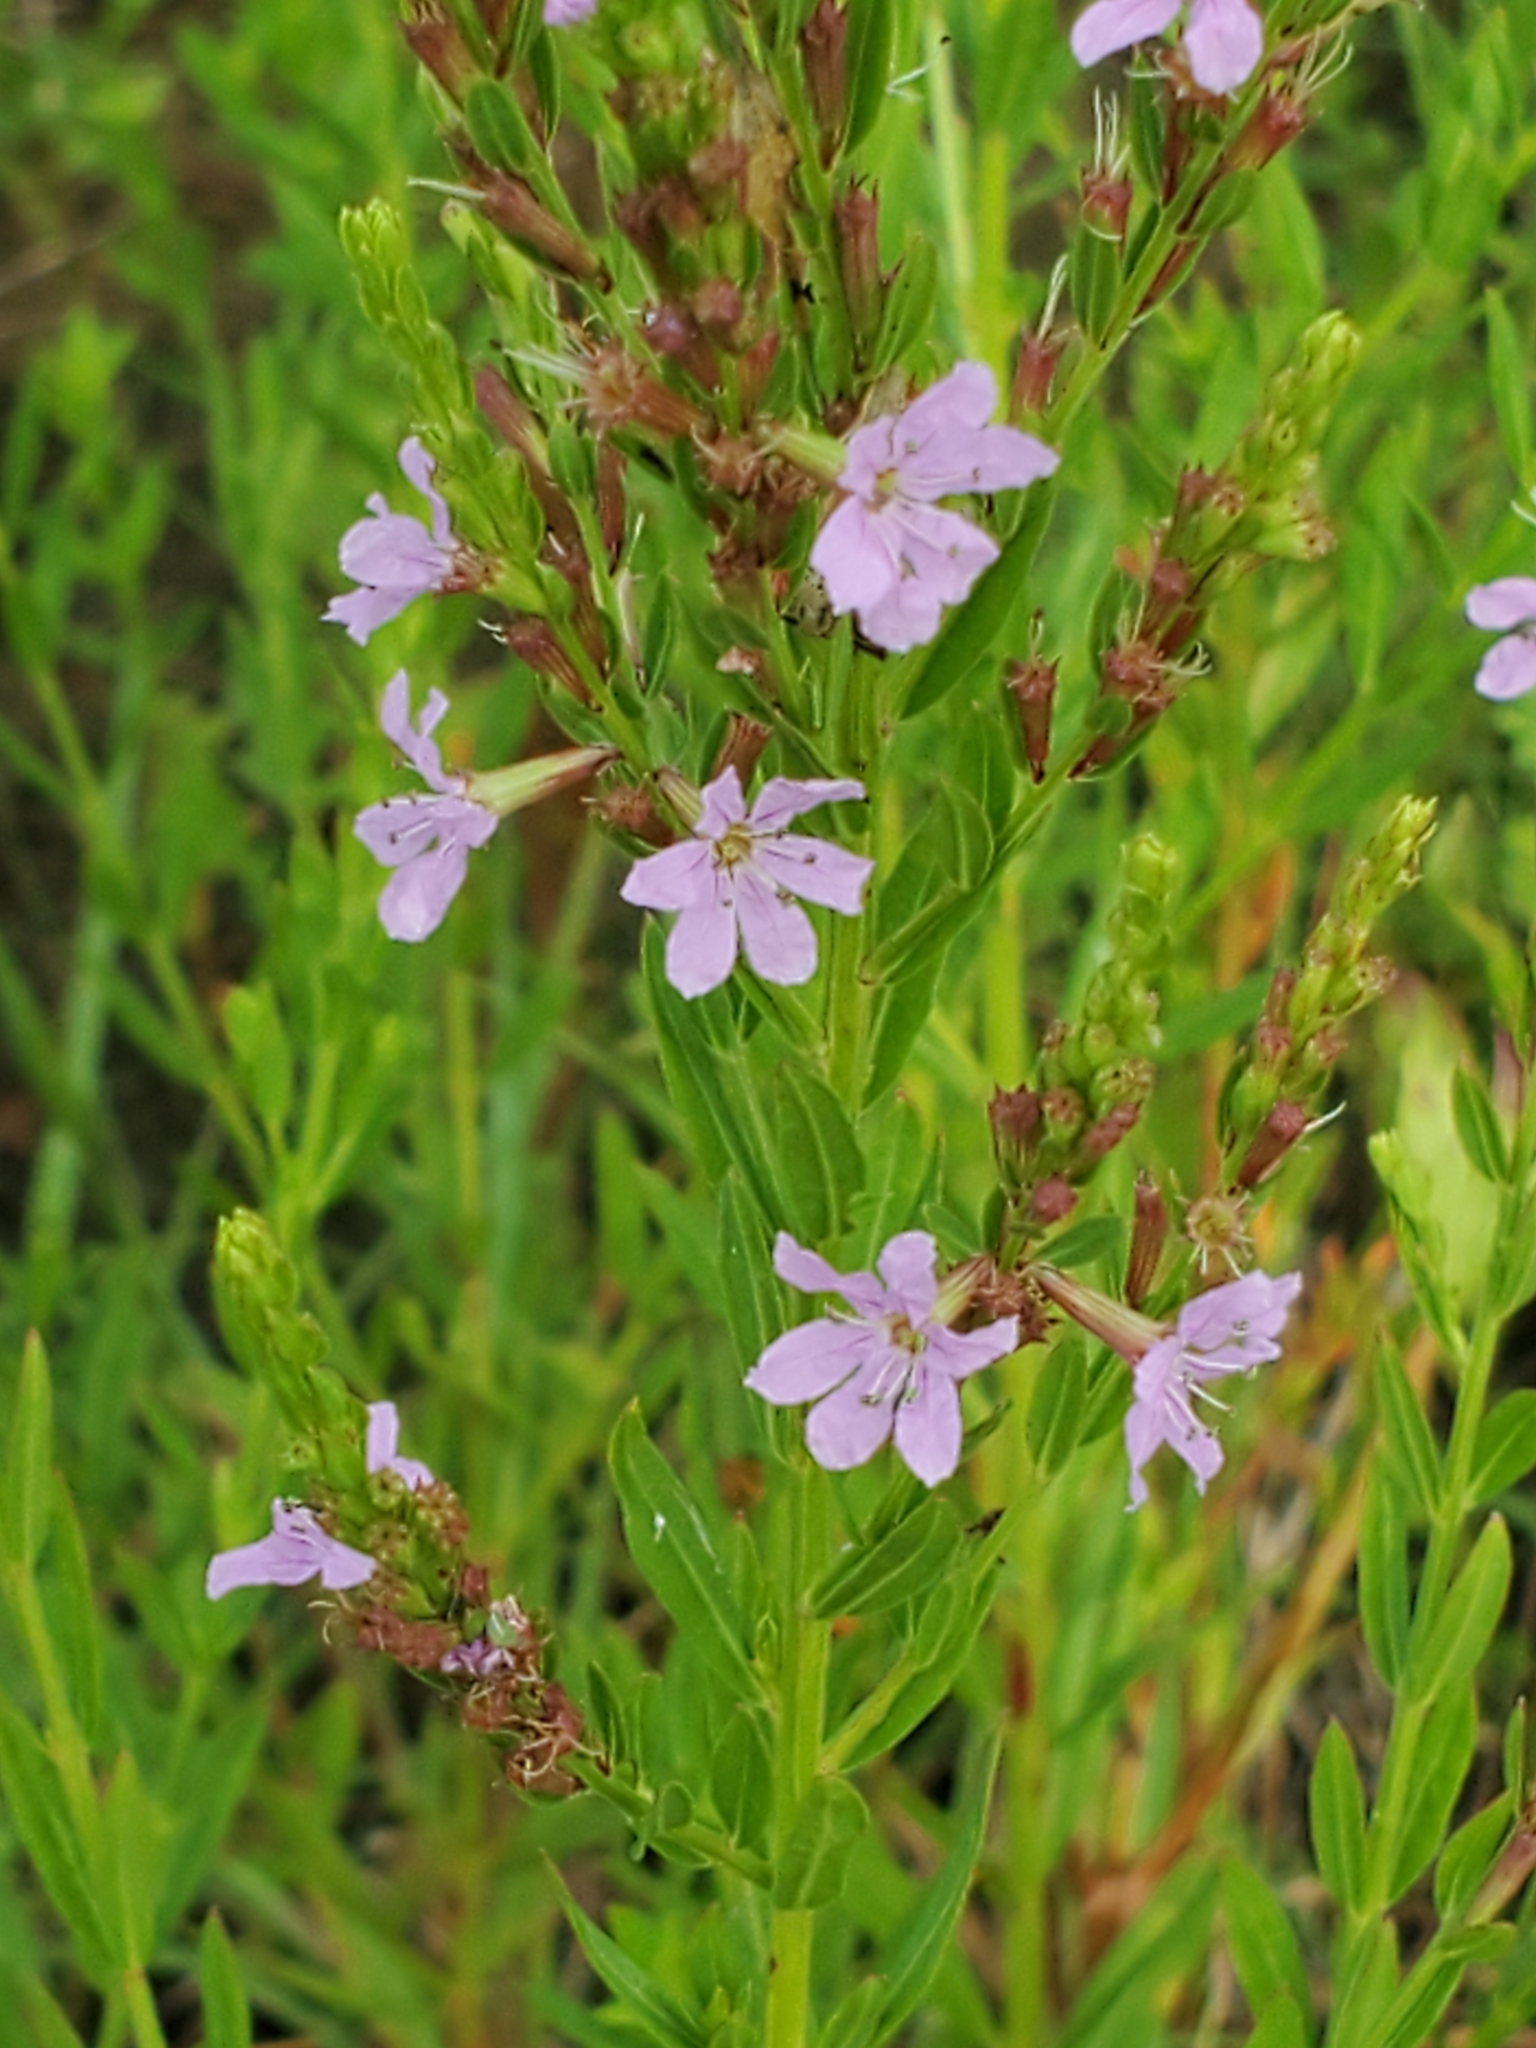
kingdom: Plantae
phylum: Tracheophyta
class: Magnoliopsida
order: Myrtales
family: Lythraceae
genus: Lythrum
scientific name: Lythrum alatum
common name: Winged loosestrife
